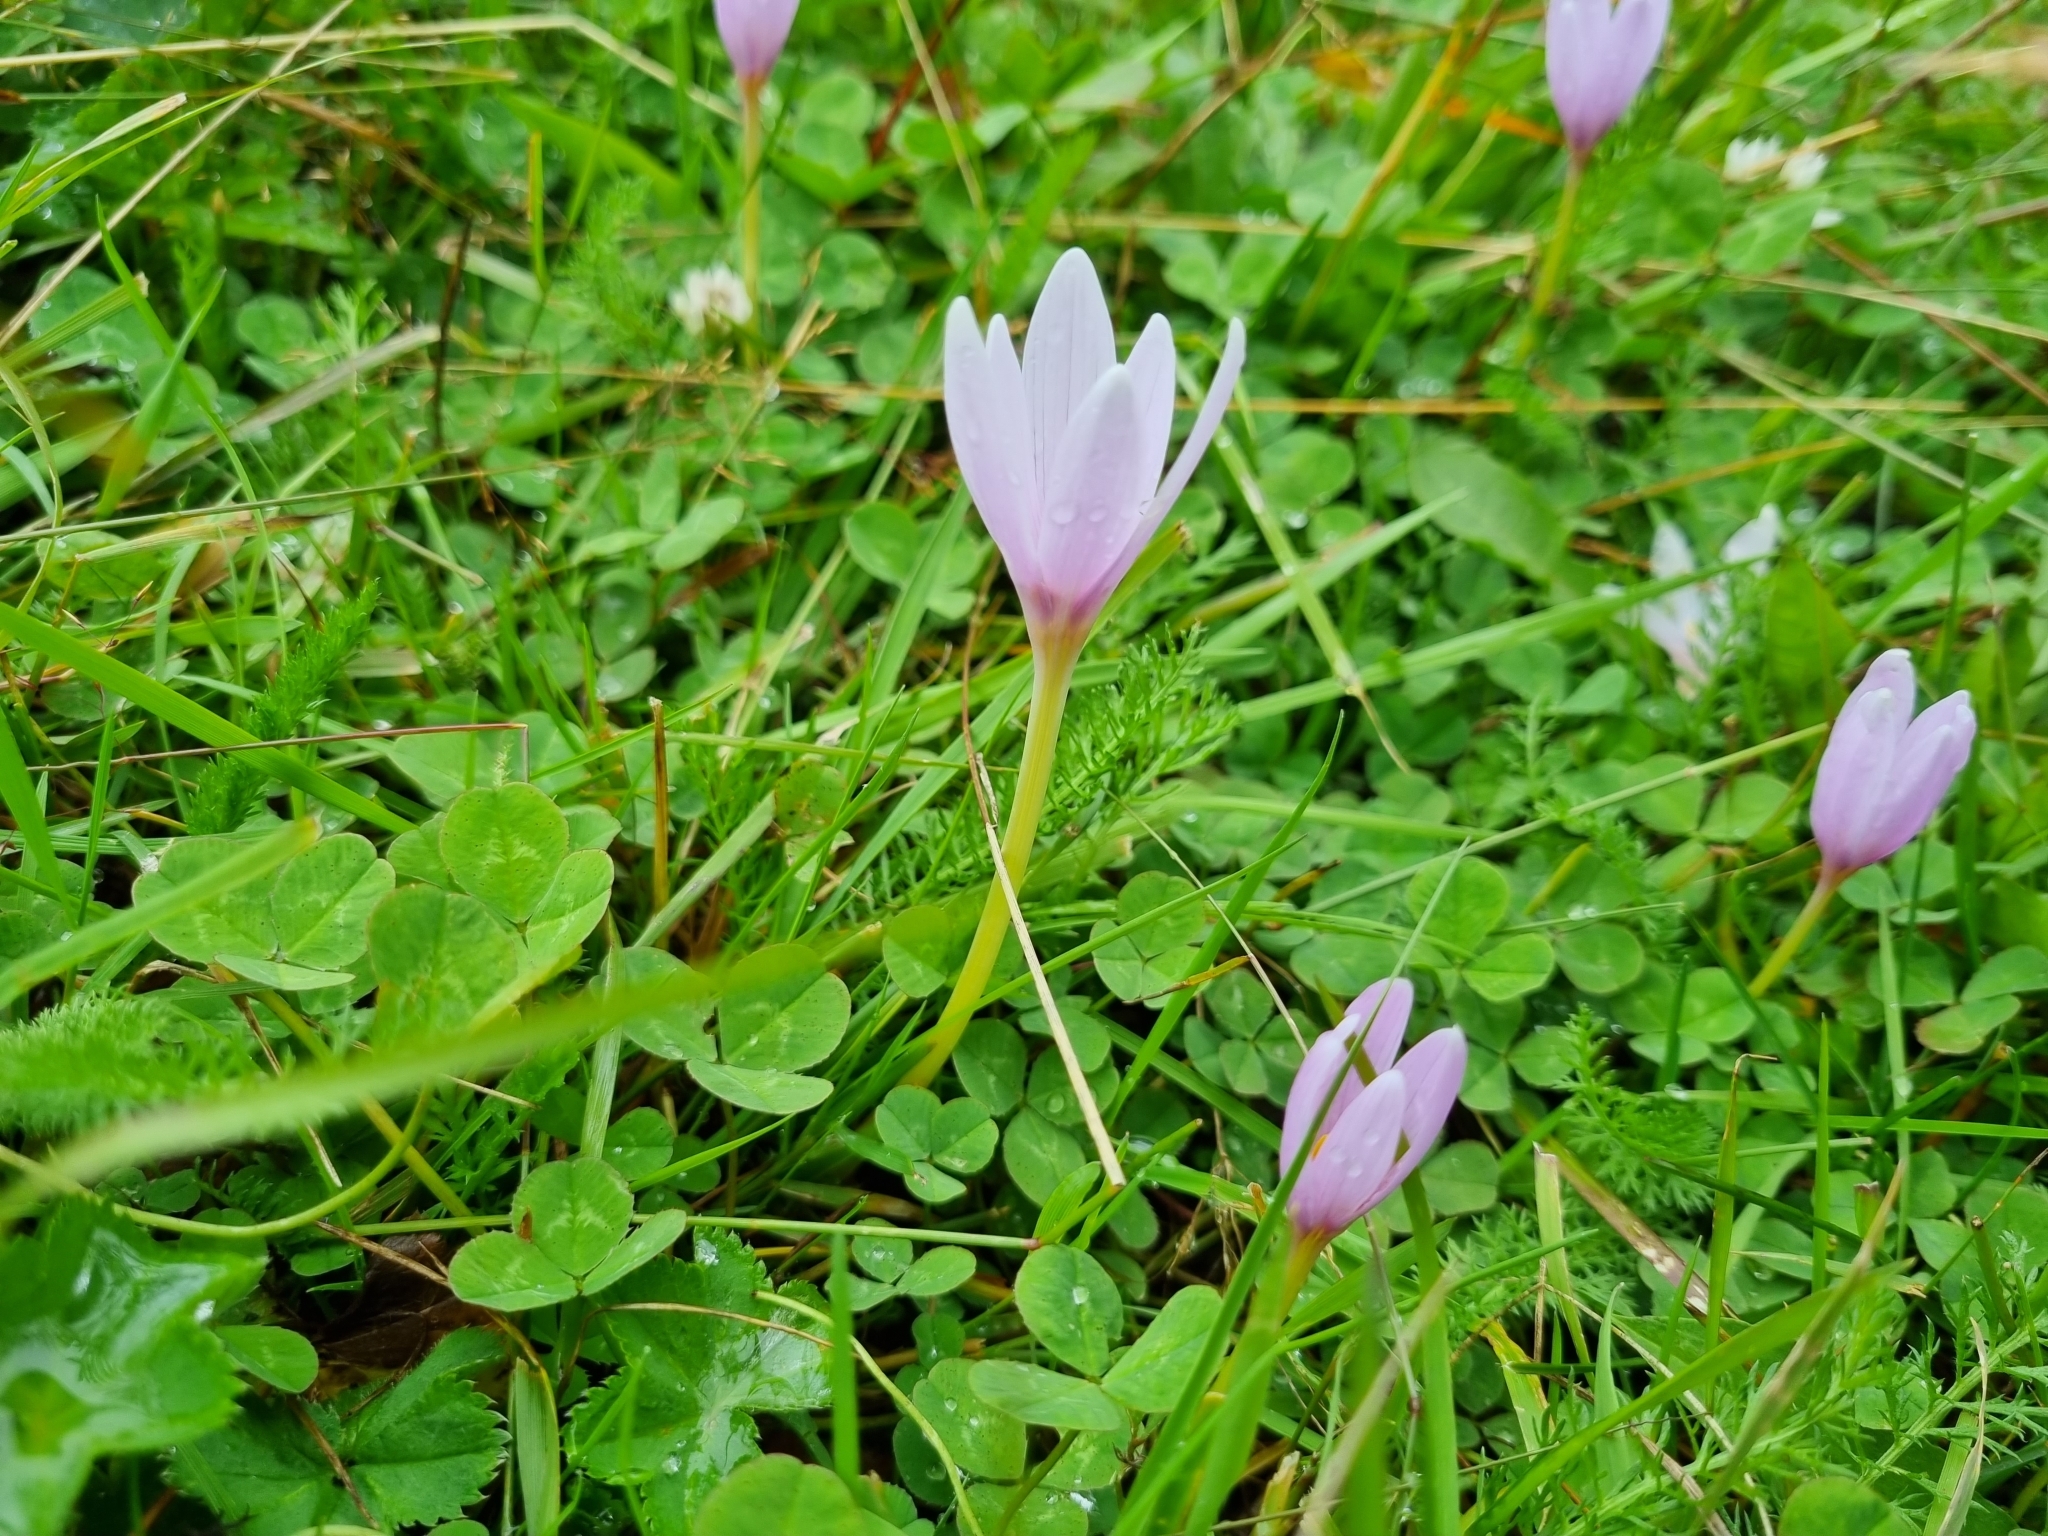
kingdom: Plantae
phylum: Tracheophyta
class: Liliopsida
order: Liliales
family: Colchicaceae
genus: Colchicum
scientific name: Colchicum alpinum
